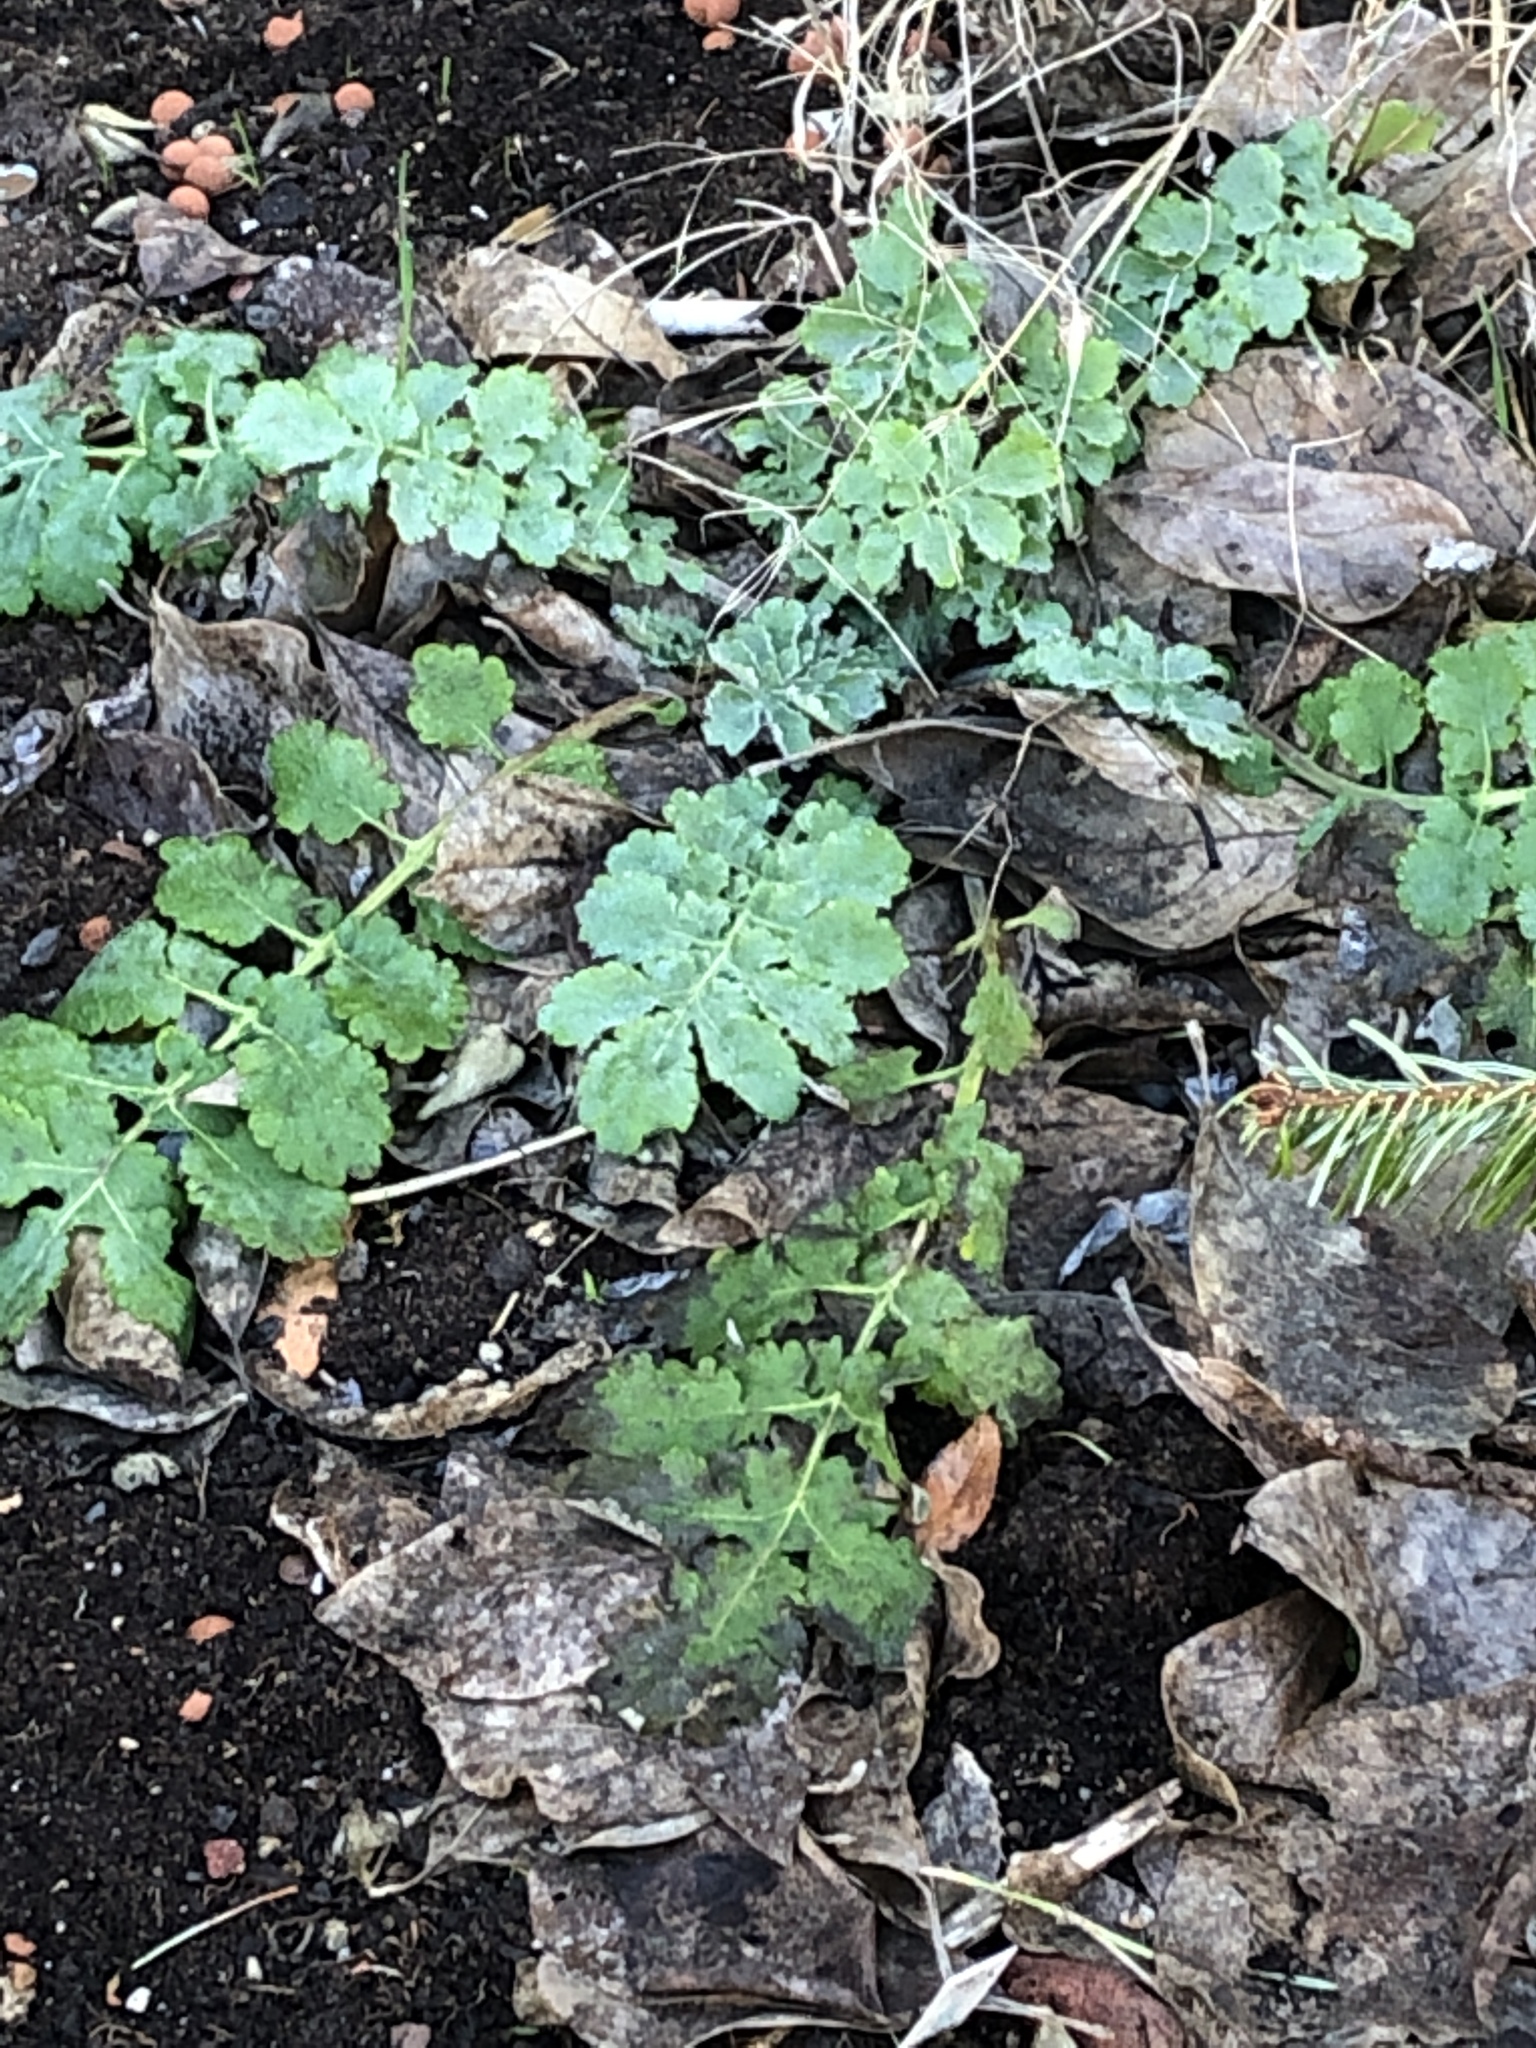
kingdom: Plantae
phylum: Tracheophyta
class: Magnoliopsida
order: Ranunculales
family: Papaveraceae
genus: Chelidonium
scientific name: Chelidonium majus
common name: Greater celandine
